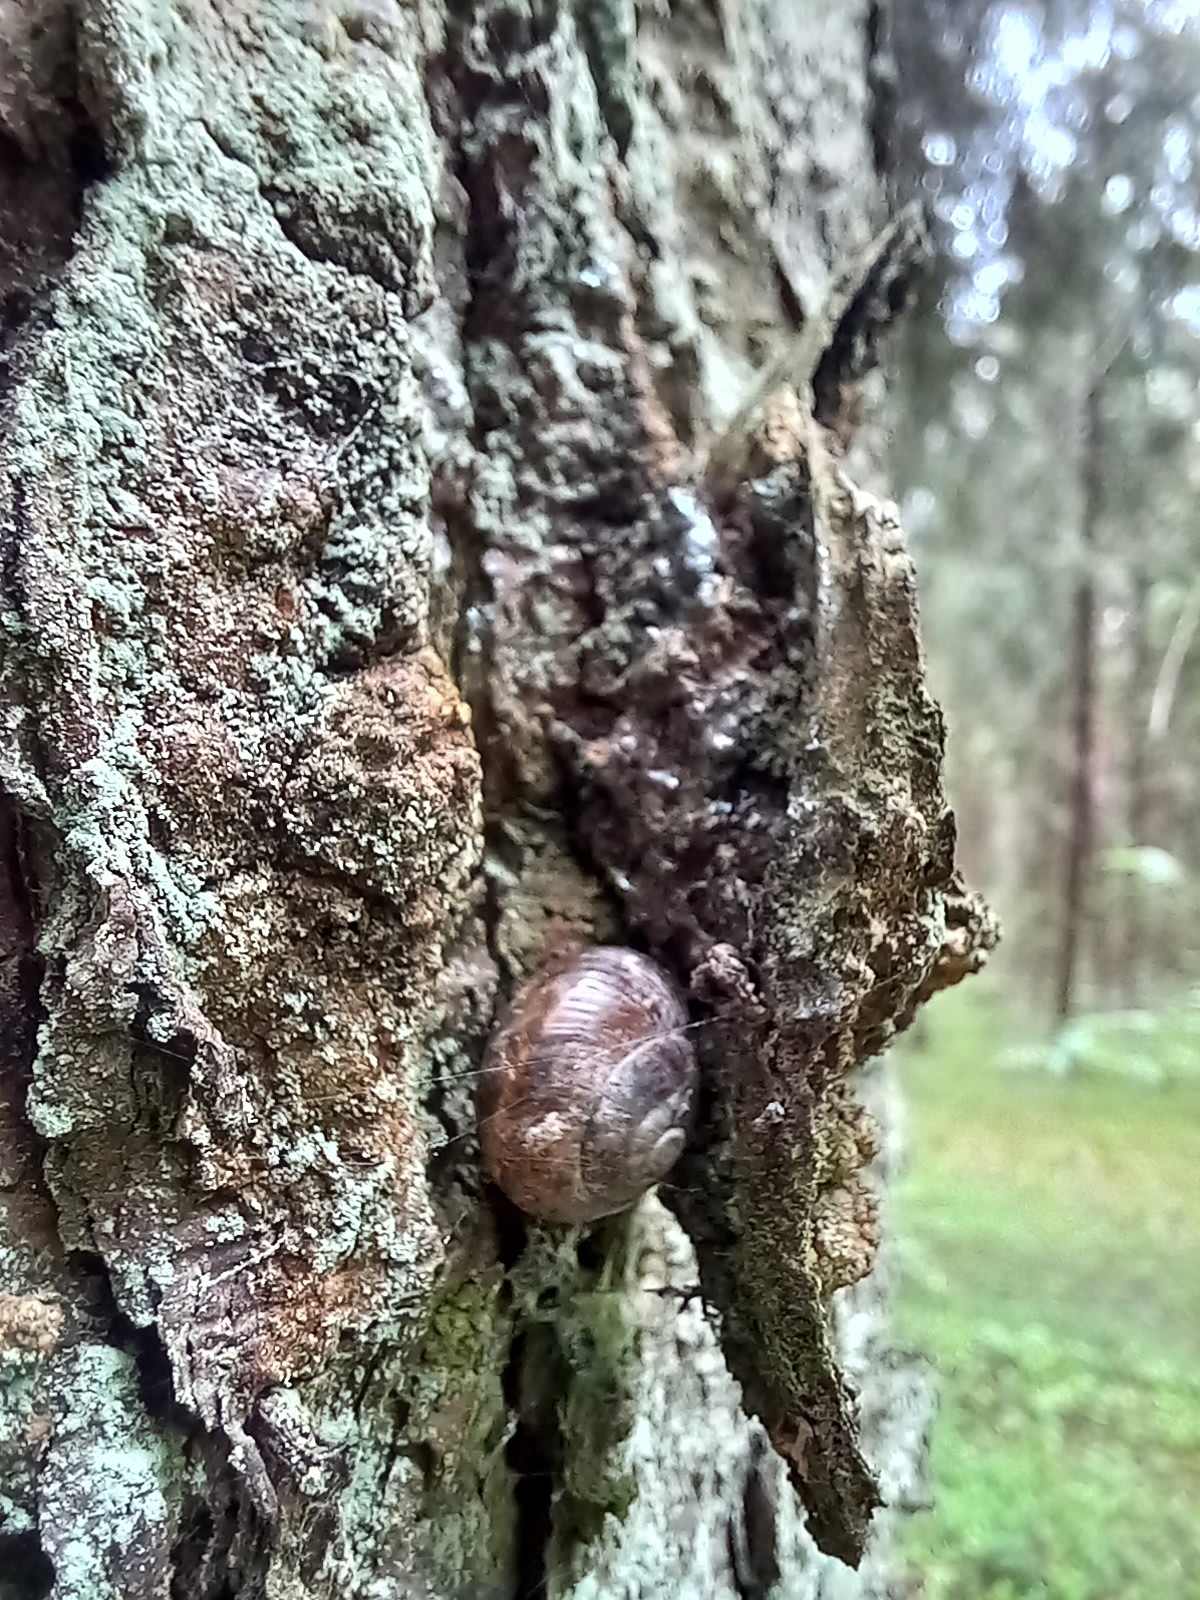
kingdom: Animalia
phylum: Mollusca
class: Gastropoda
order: Stylommatophora
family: Helicidae
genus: Arianta
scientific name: Arianta arbustorum
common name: Copse snail
